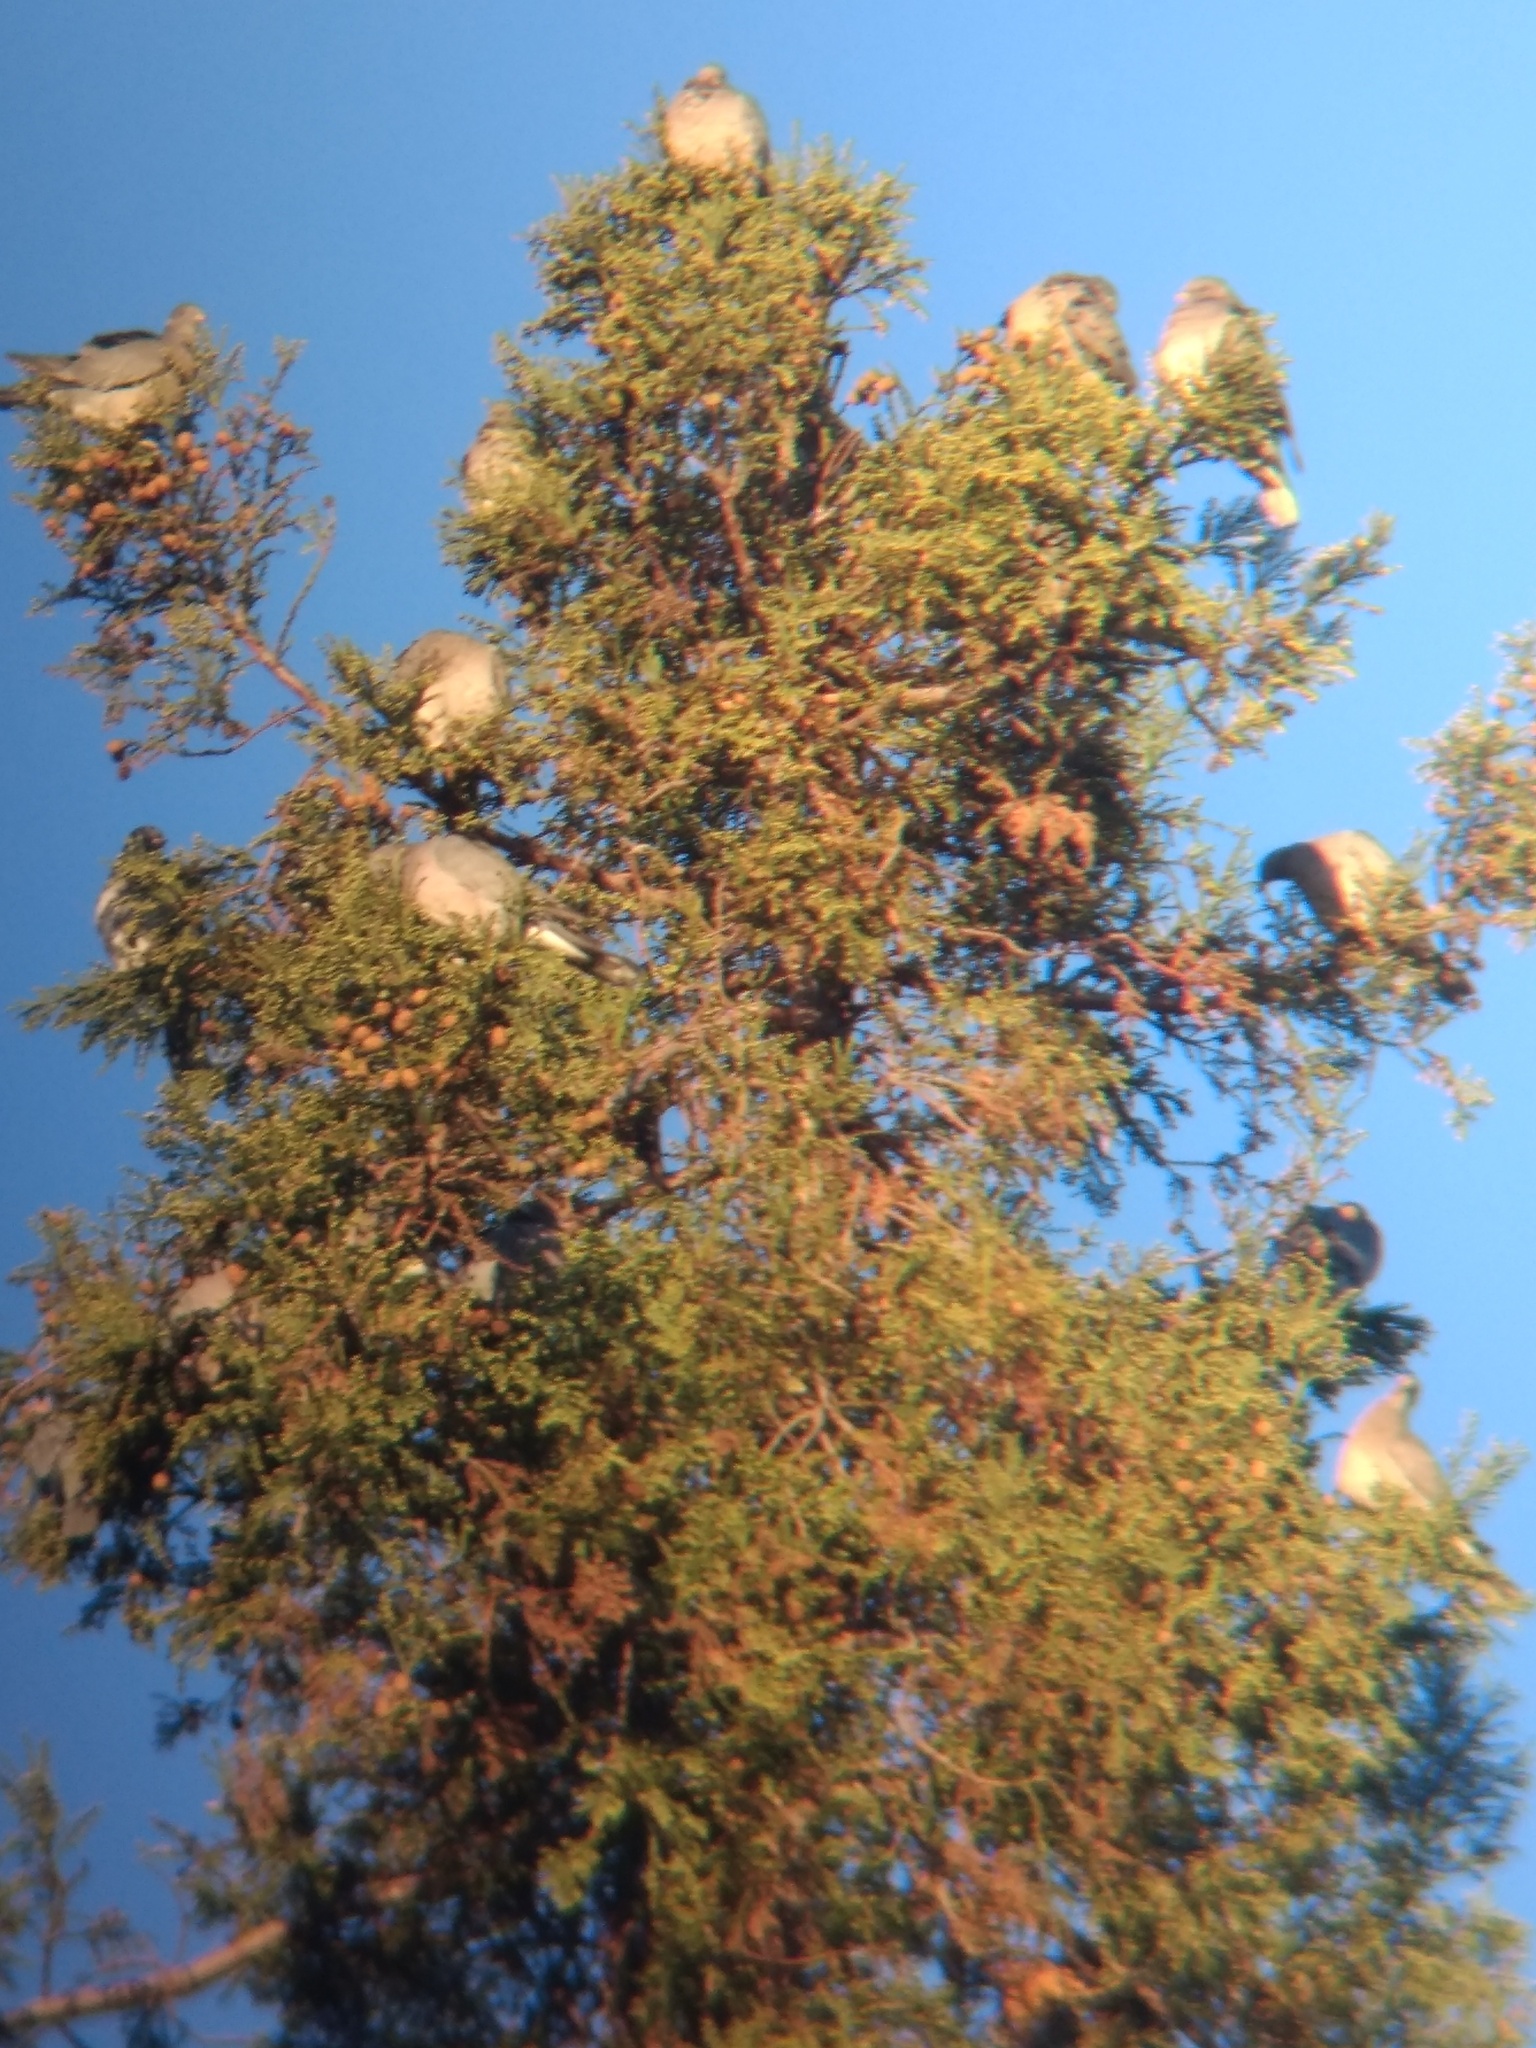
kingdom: Animalia
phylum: Chordata
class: Aves
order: Columbiformes
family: Columbidae
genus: Patagioenas
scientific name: Patagioenas fasciata
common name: Band-tailed pigeon
